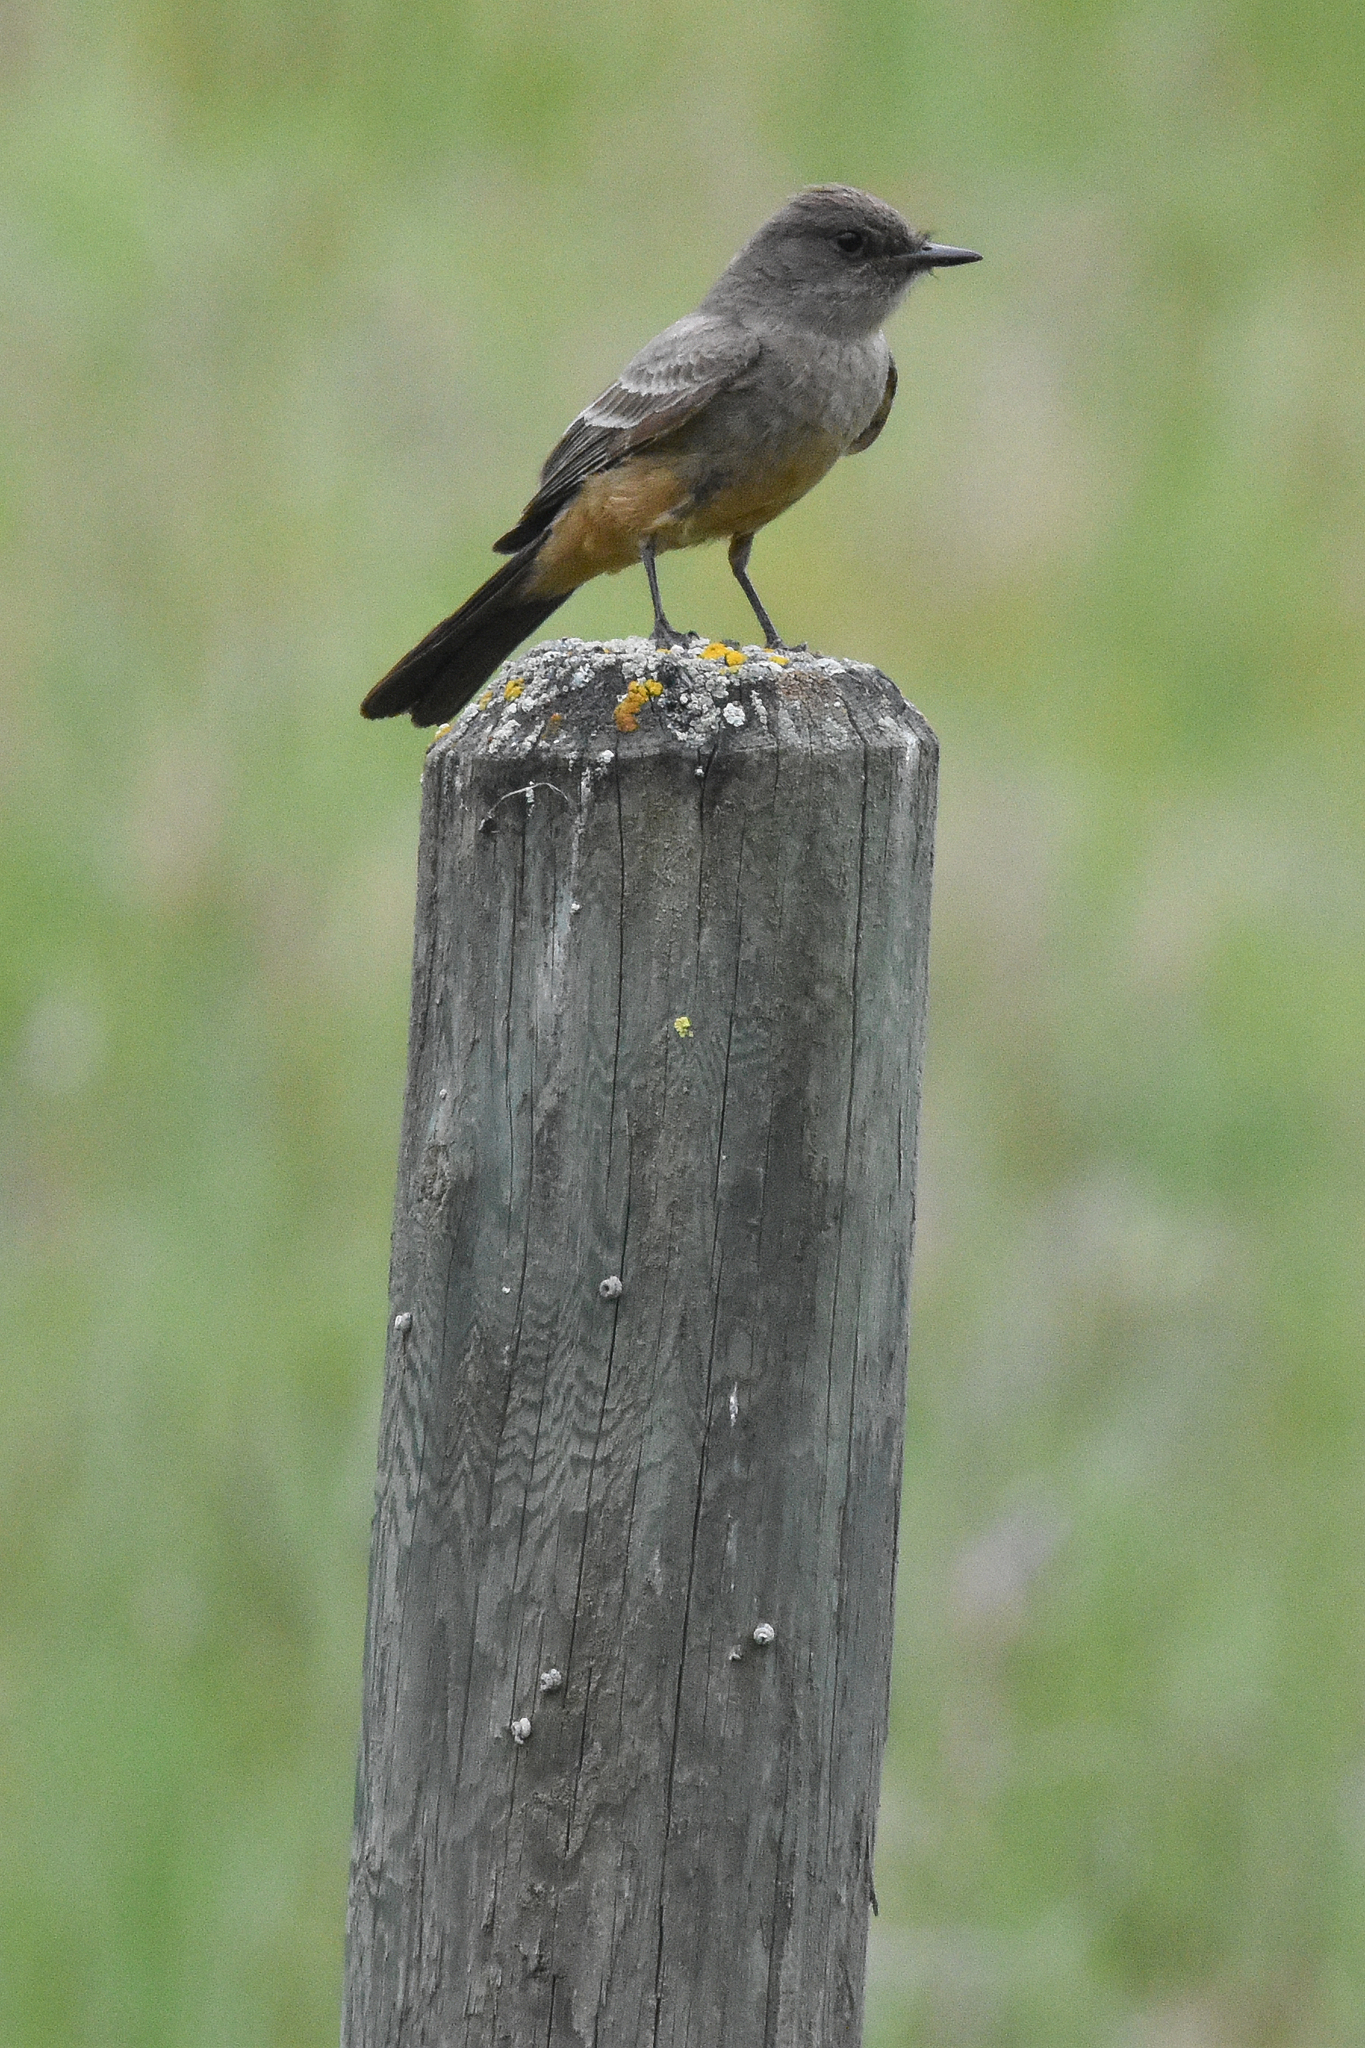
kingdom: Animalia
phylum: Chordata
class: Aves
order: Passeriformes
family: Tyrannidae
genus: Sayornis
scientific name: Sayornis saya
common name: Say's phoebe
